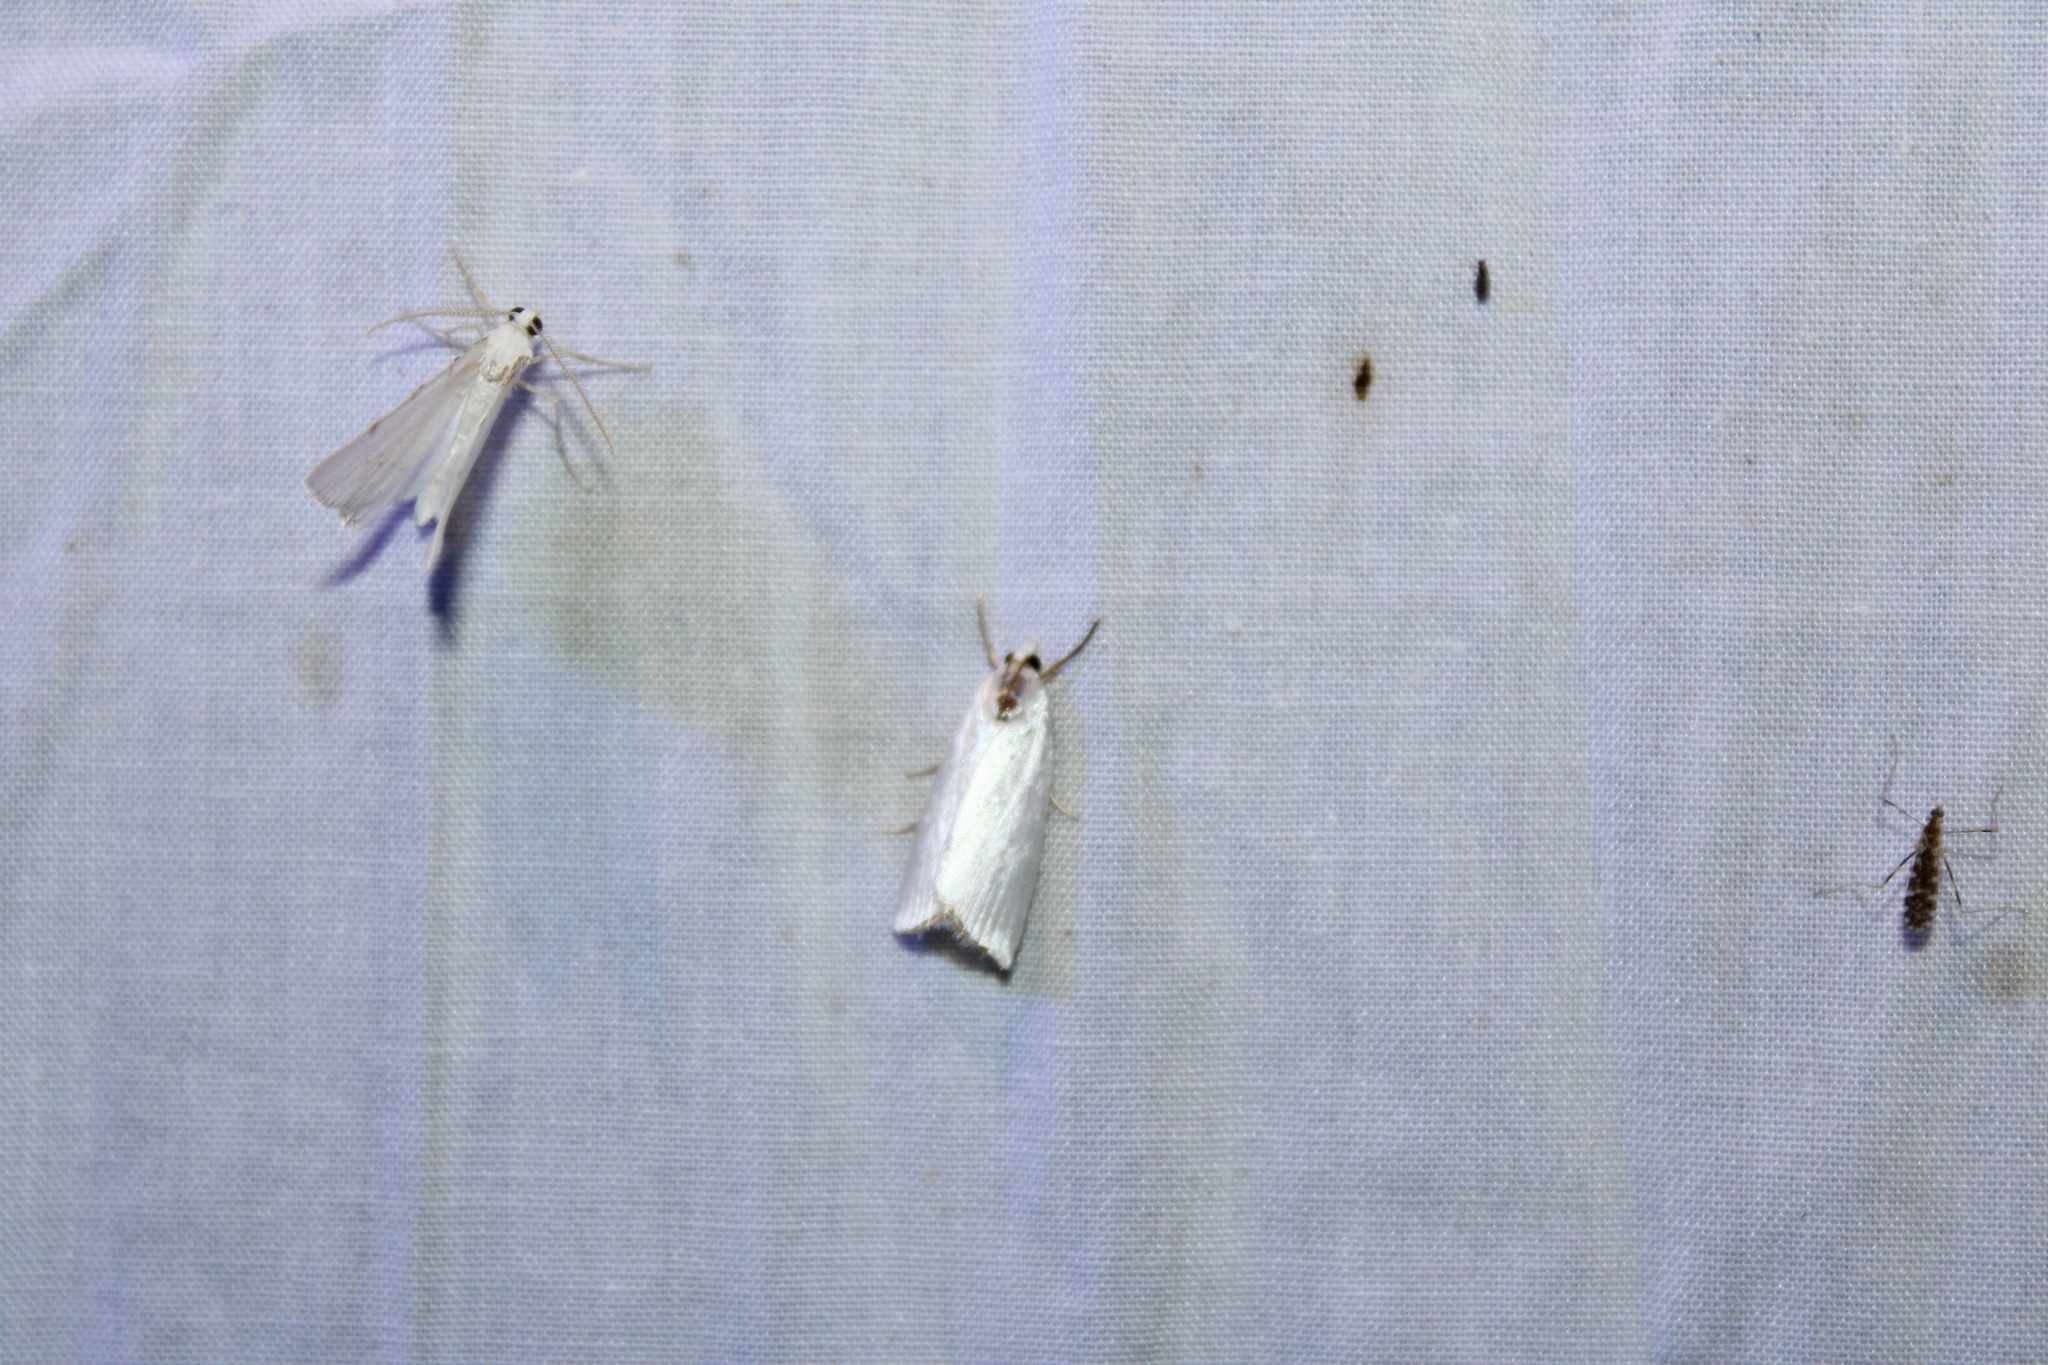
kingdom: Animalia
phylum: Arthropoda
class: Insecta
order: Lepidoptera
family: Crambidae
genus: Argyria
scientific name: Argyria nivalis
